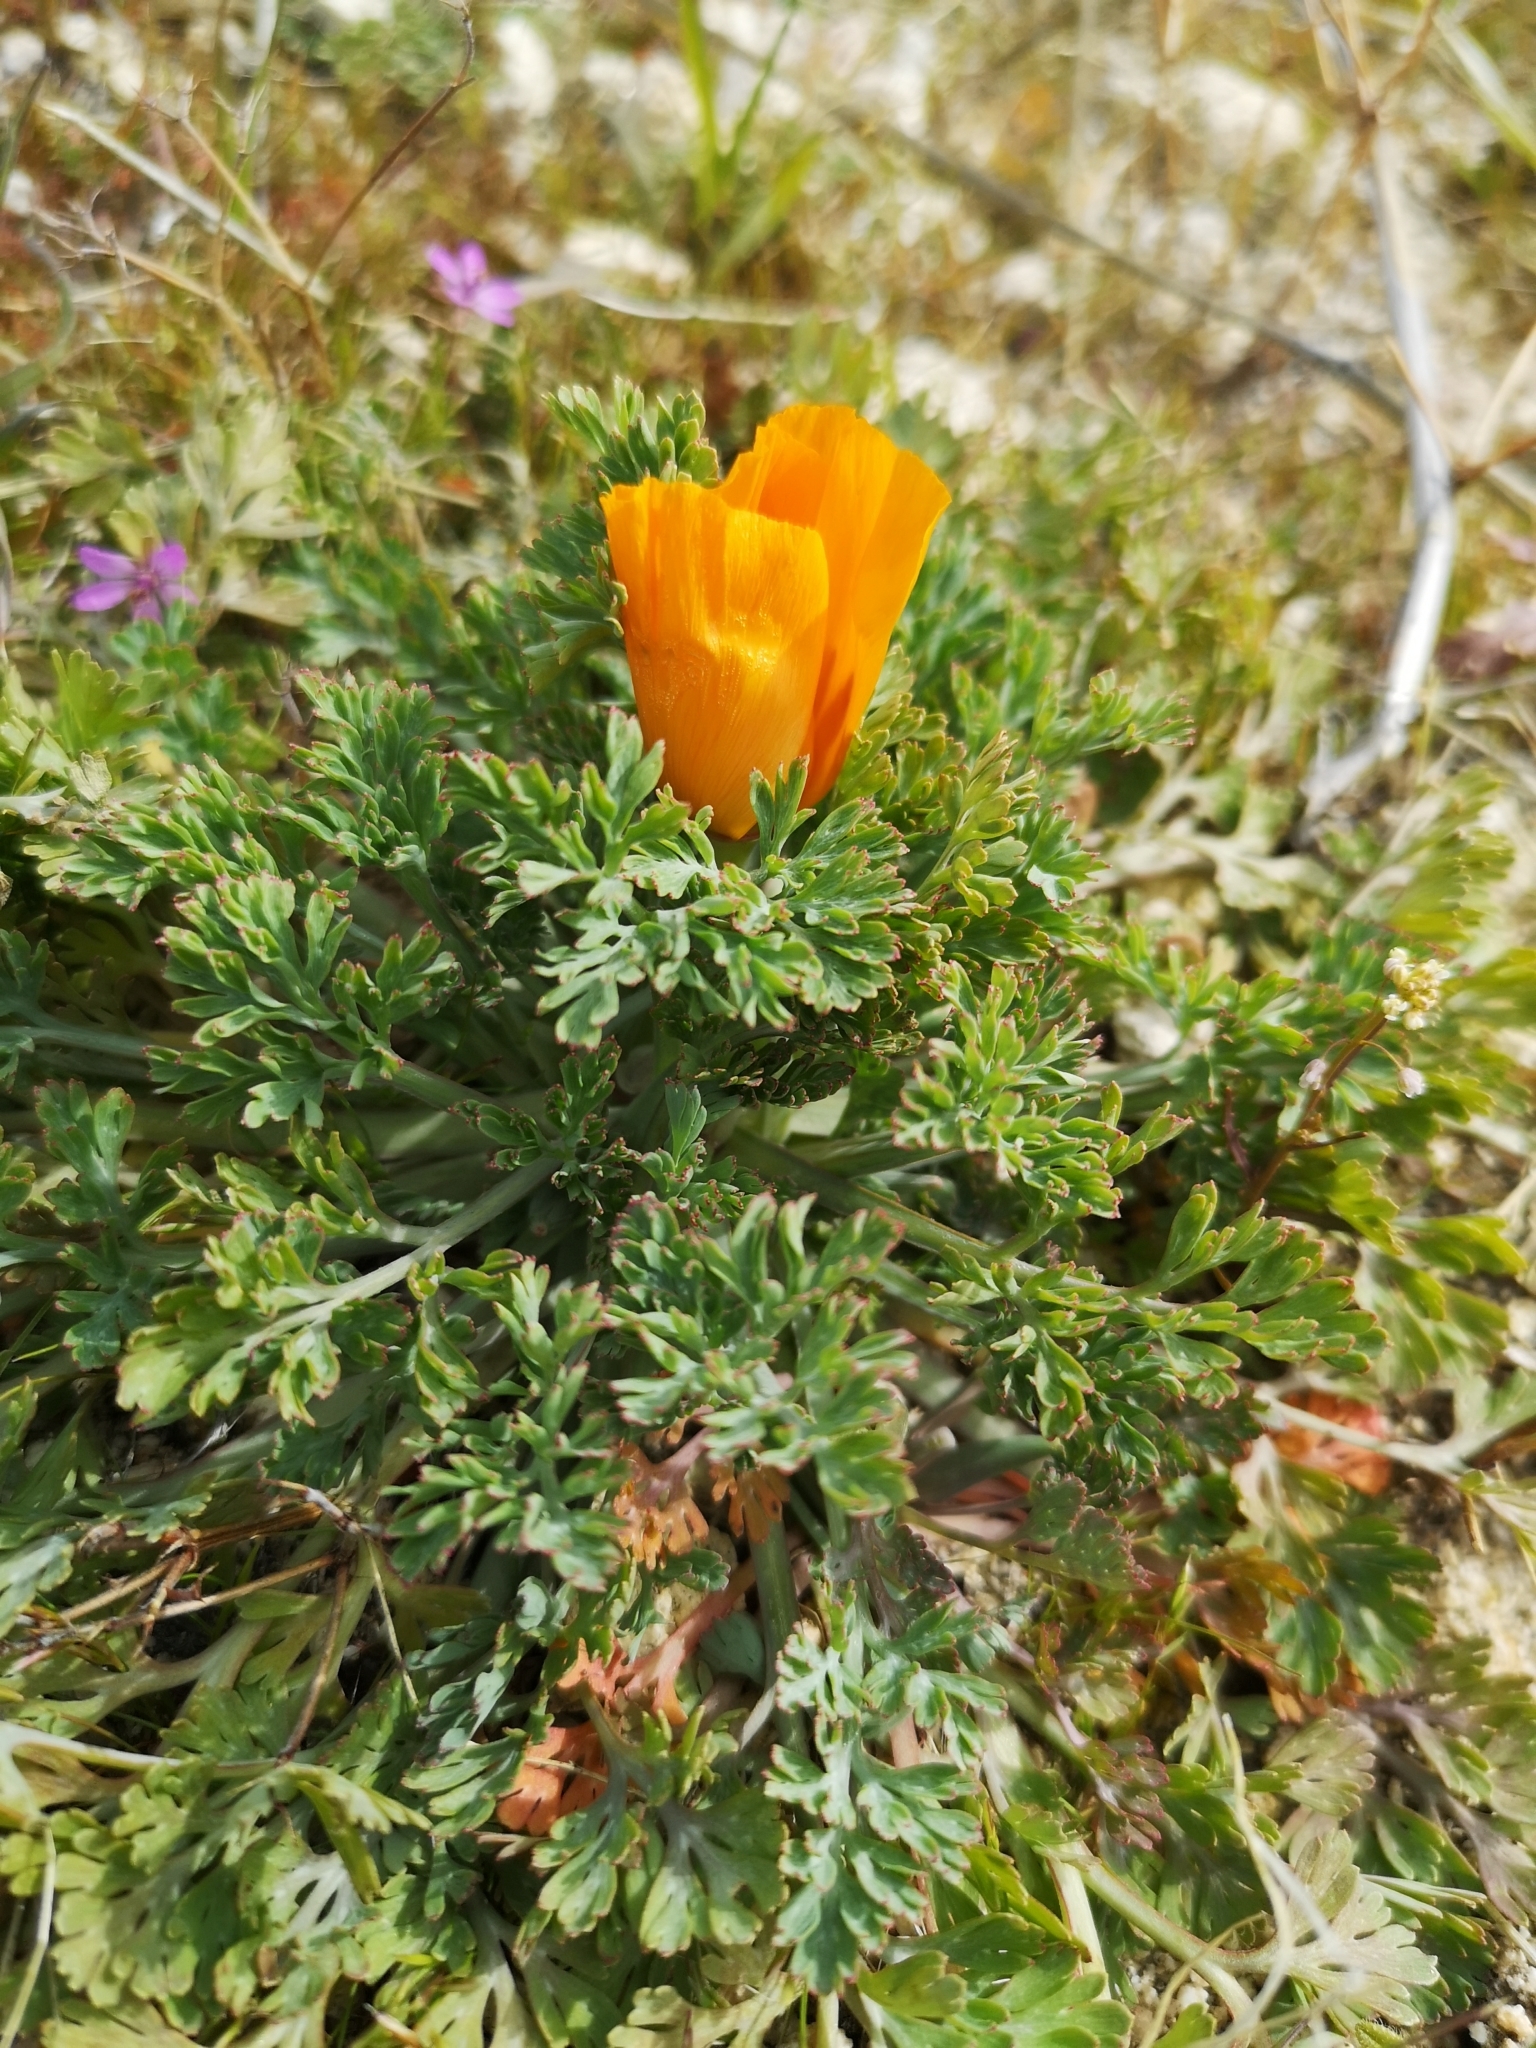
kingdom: Plantae
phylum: Tracheophyta
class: Magnoliopsida
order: Ranunculales
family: Papaveraceae
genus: Eschscholzia
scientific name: Eschscholzia californica
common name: California poppy
